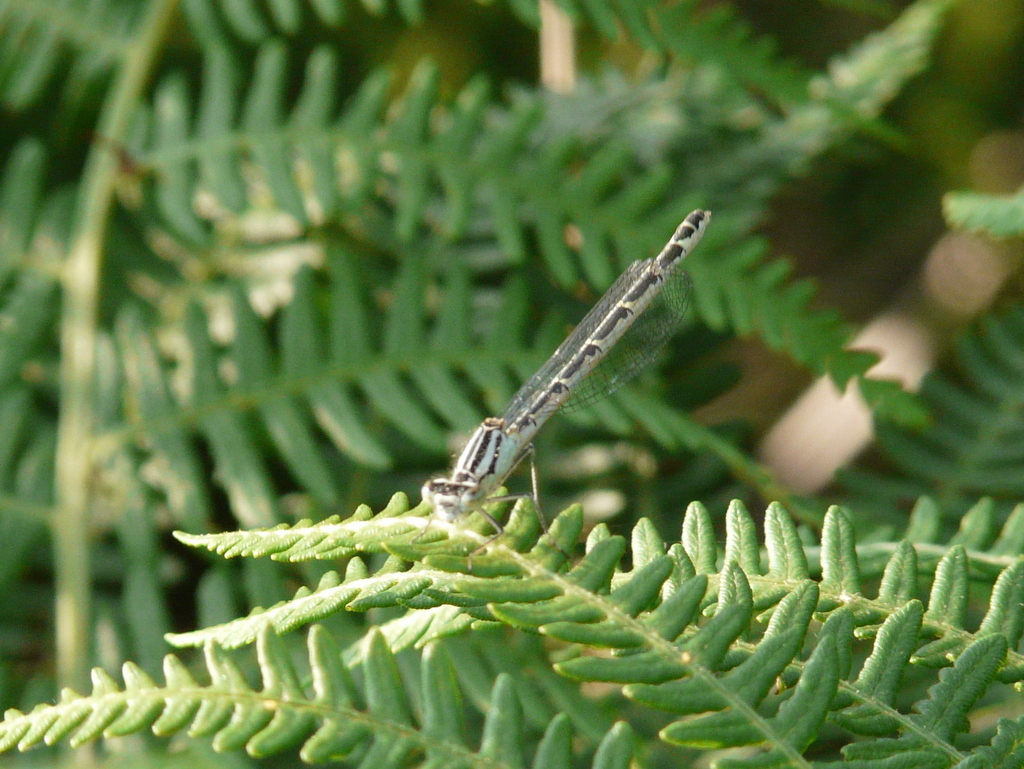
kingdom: Animalia
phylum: Arthropoda
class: Insecta
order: Odonata
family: Coenagrionidae
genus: Enallagma
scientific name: Enallagma cyathigerum
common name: Common blue damselfly
